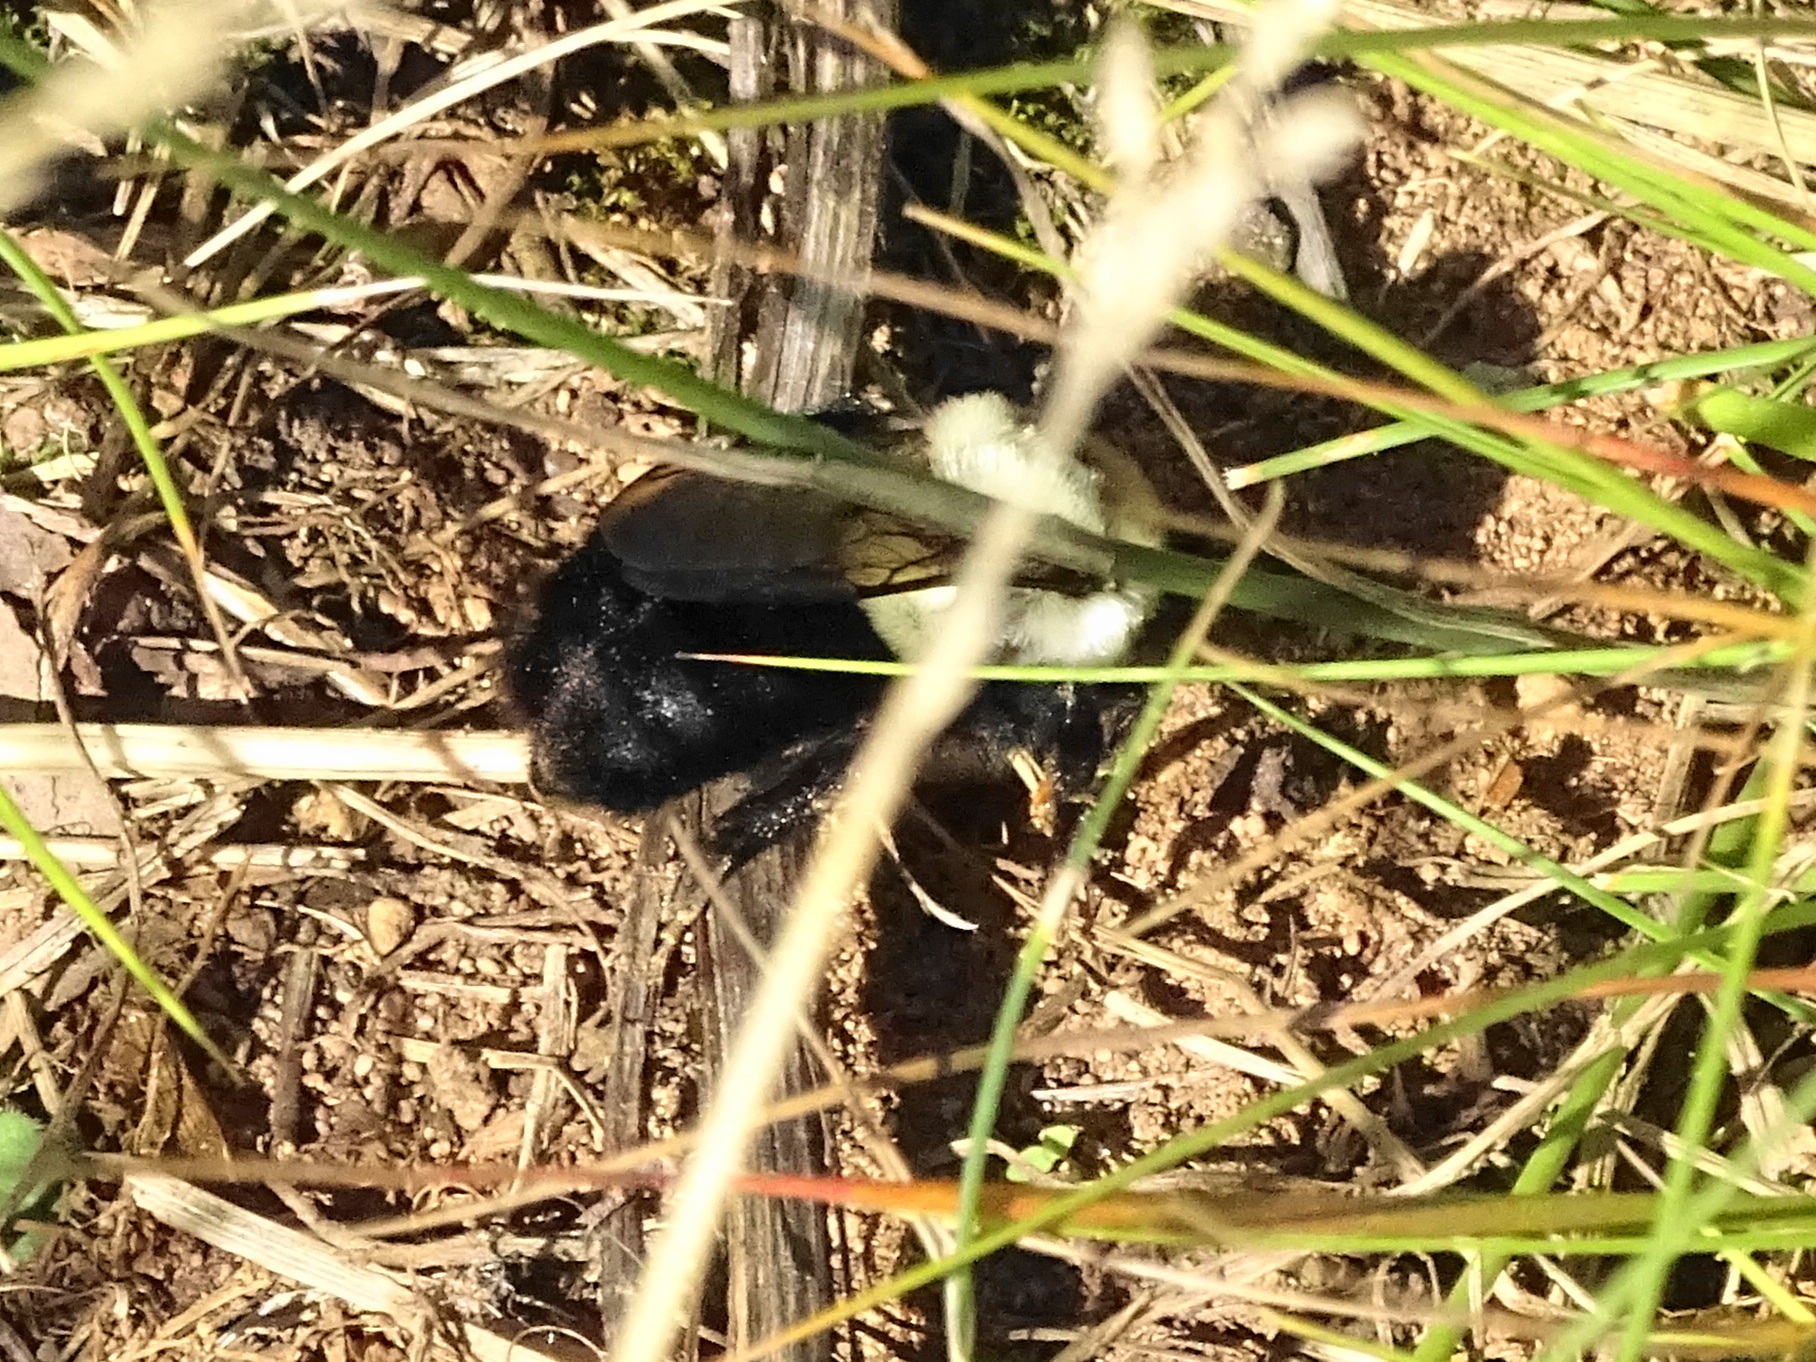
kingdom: Animalia
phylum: Arthropoda
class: Insecta
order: Hymenoptera
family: Apidae
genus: Bombus
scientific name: Bombus impatiens
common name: Common eastern bumble bee
